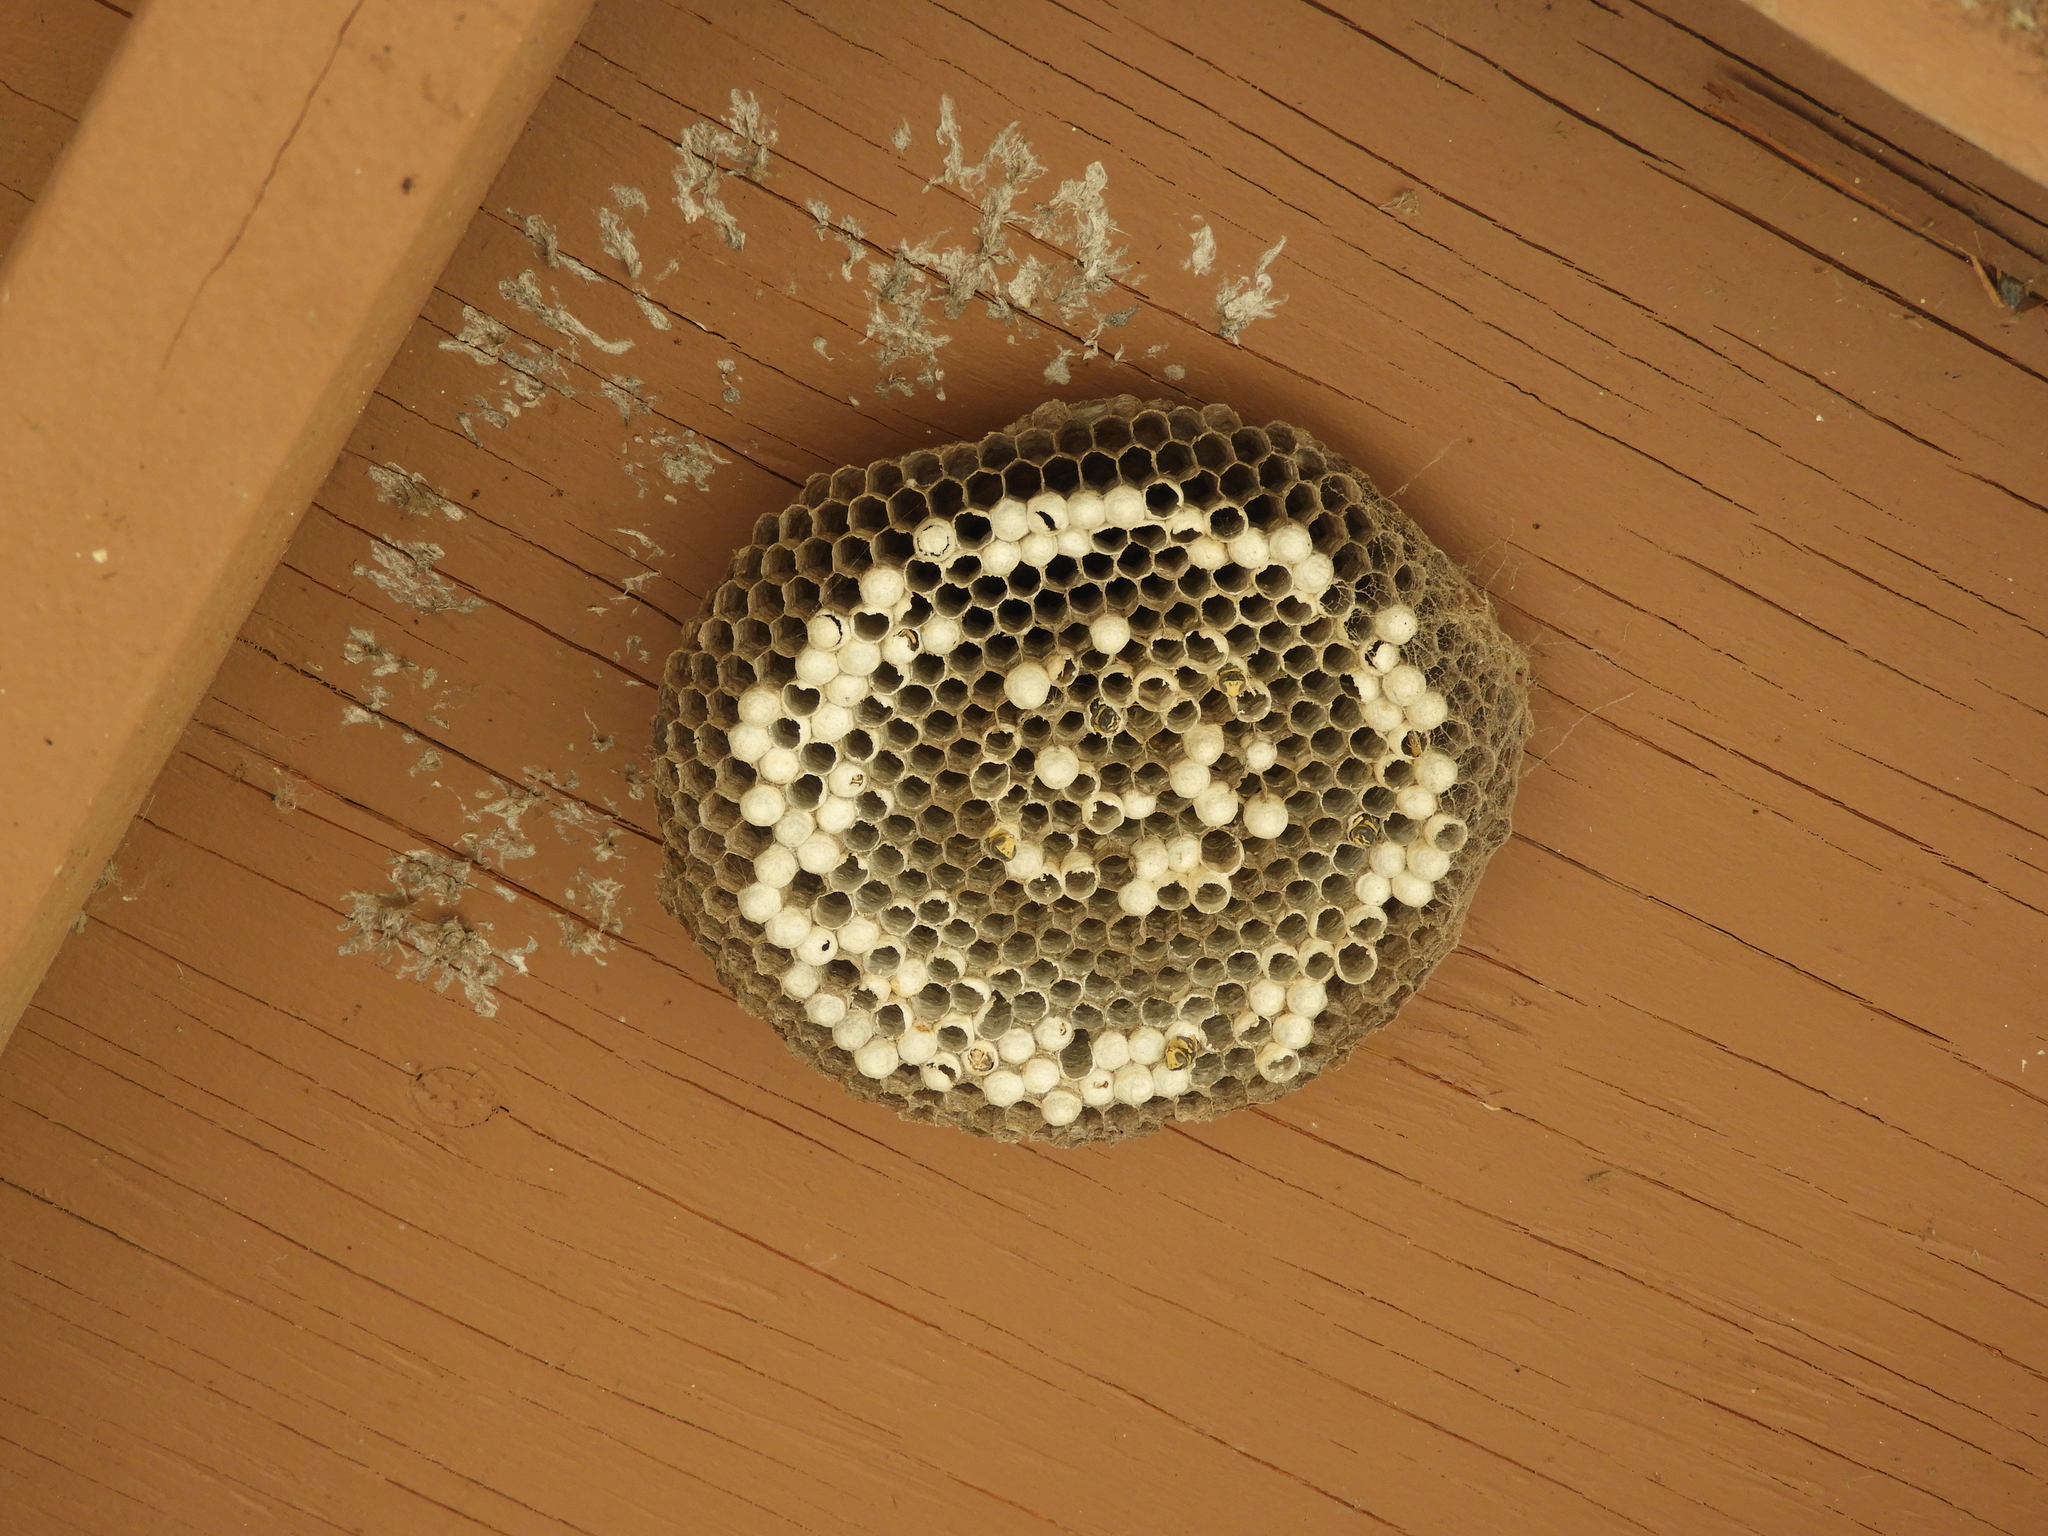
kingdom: Animalia
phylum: Arthropoda
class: Insecta
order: Hymenoptera
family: Eumenidae
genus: Polistes
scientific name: Polistes dominula
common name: Paper wasp
